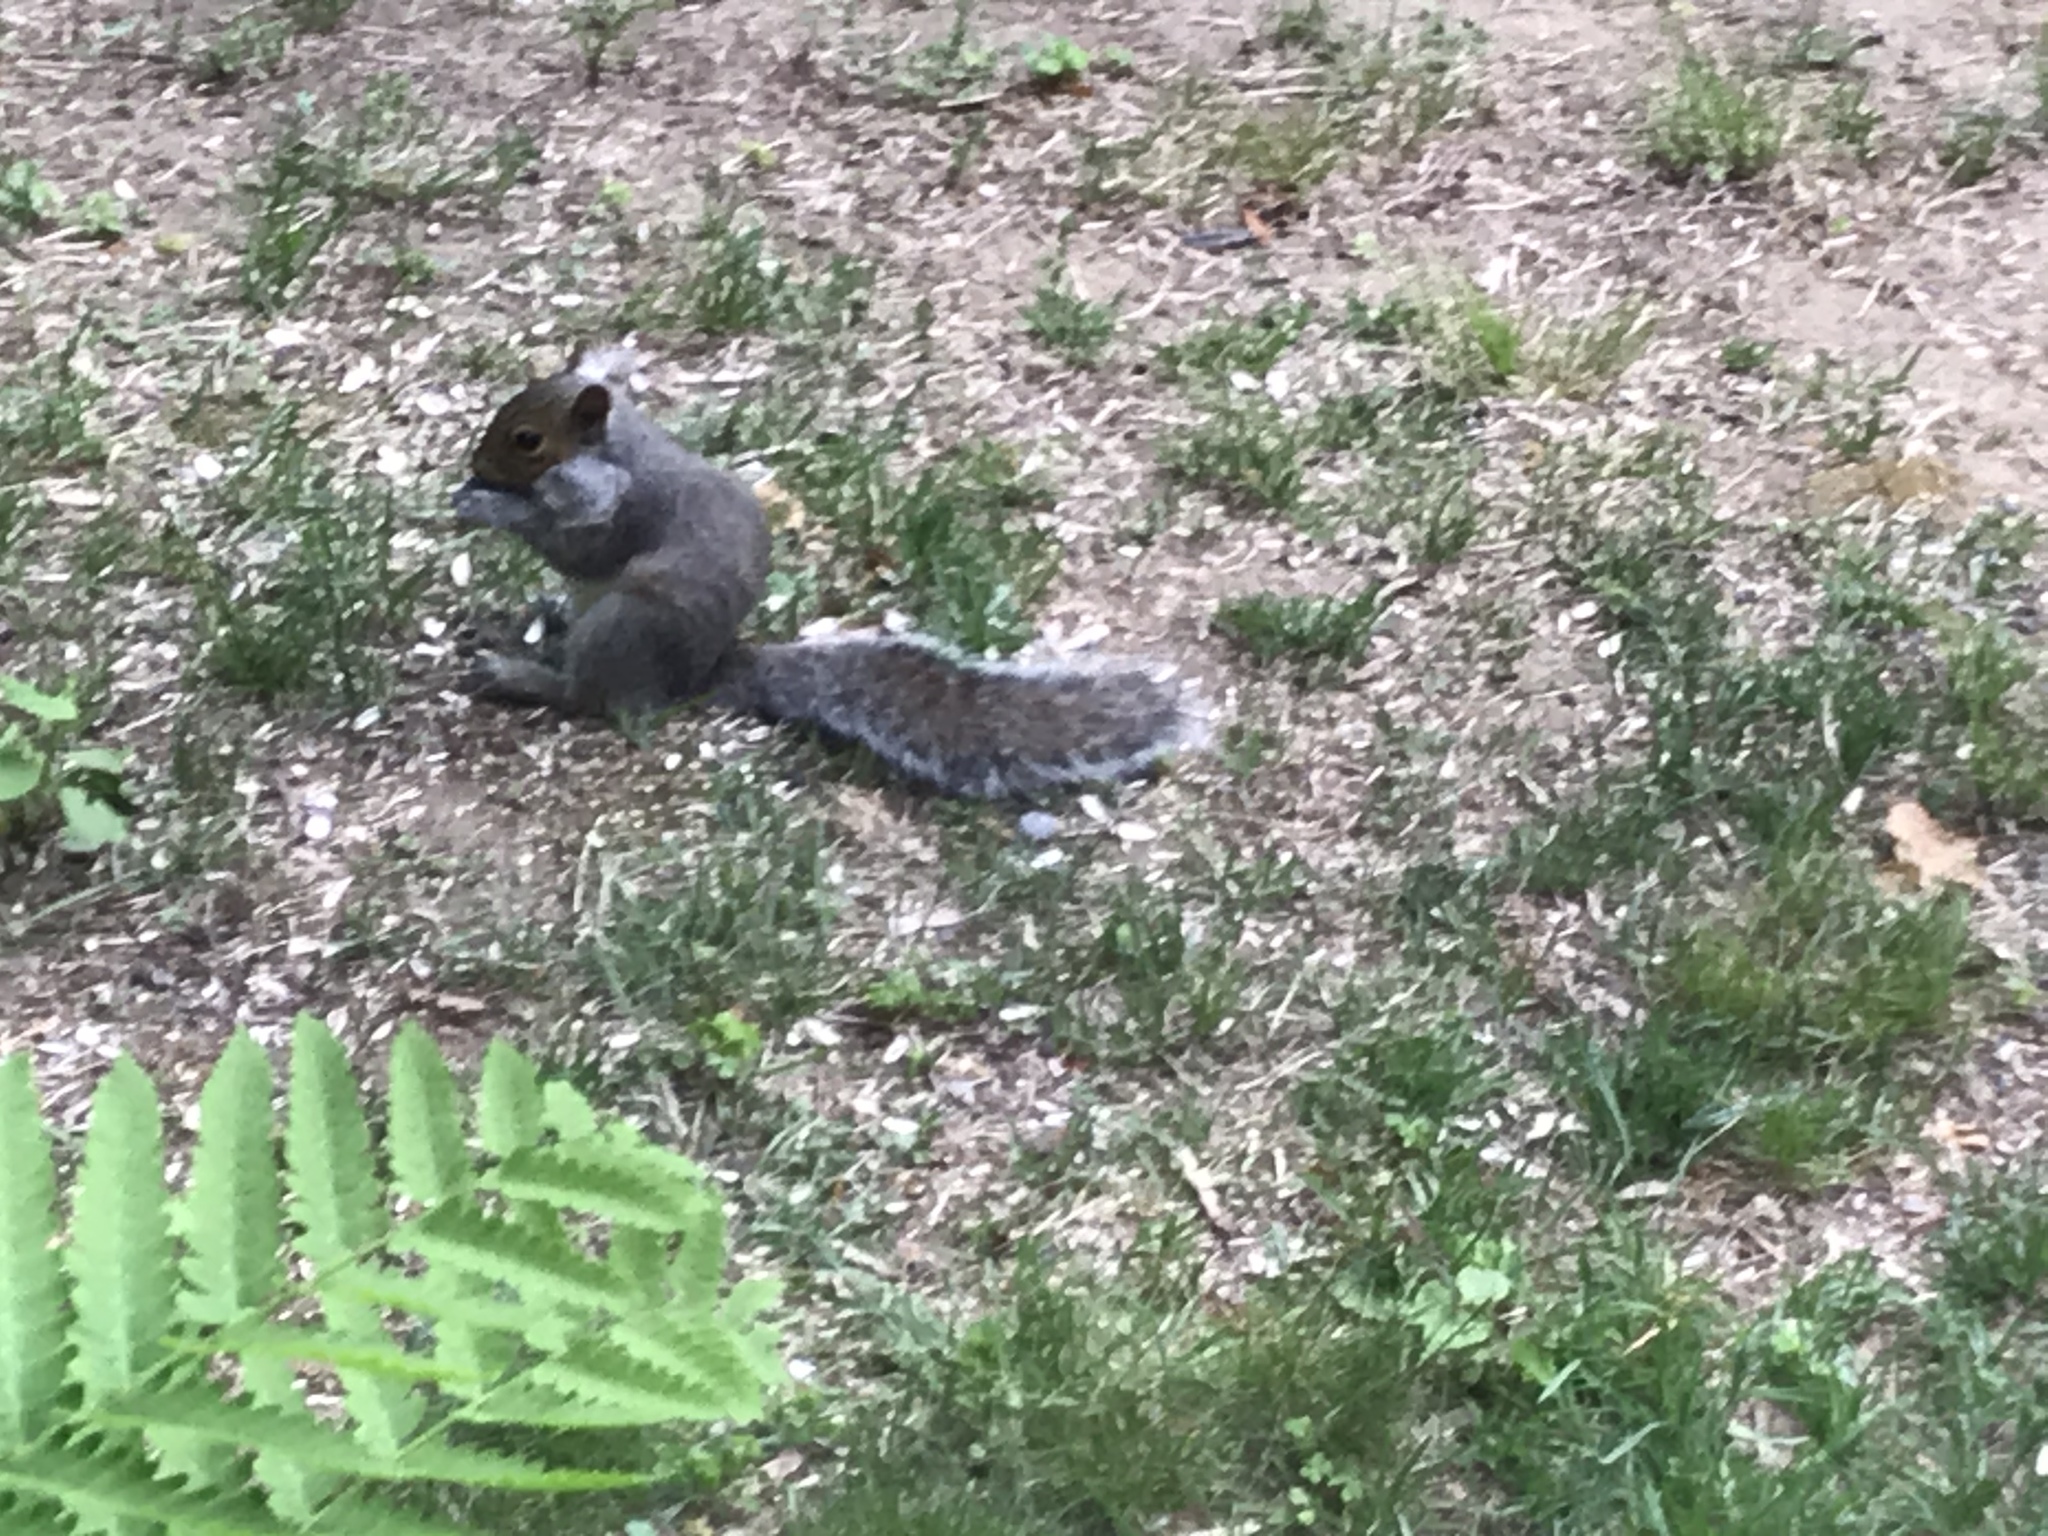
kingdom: Animalia
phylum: Chordata
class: Mammalia
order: Rodentia
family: Sciuridae
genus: Sciurus
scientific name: Sciurus carolinensis
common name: Eastern gray squirrel
